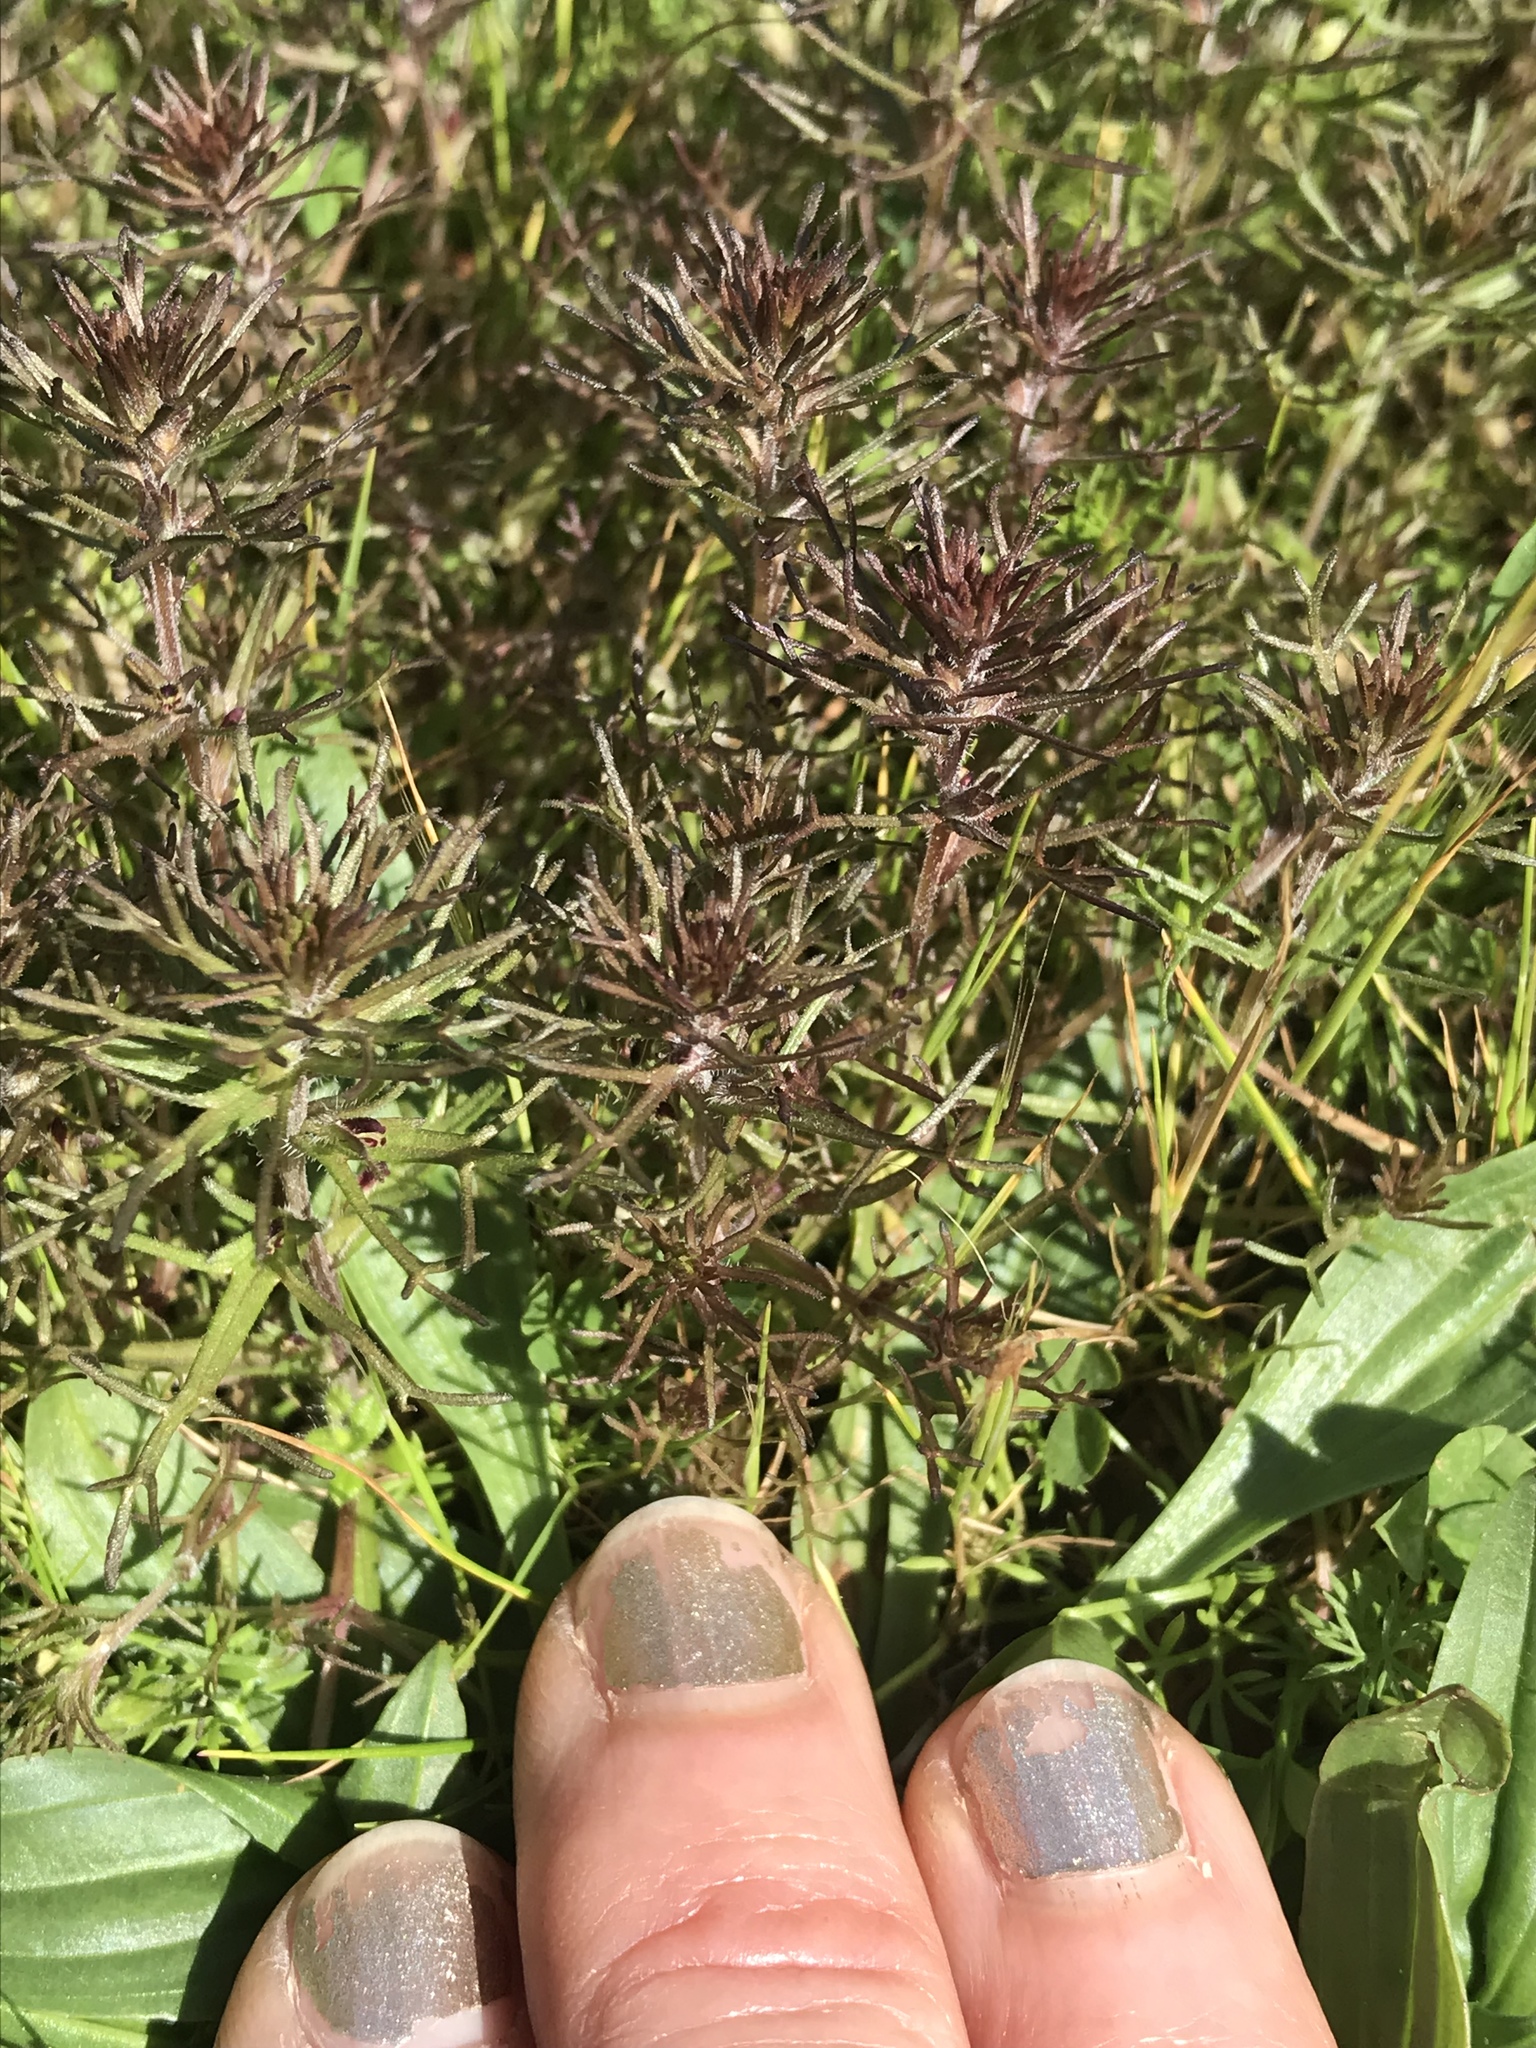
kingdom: Plantae
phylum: Tracheophyta
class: Magnoliopsida
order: Lamiales
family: Orobanchaceae
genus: Triphysaria
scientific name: Triphysaria pusilla
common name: Dwarf false owl-clover
